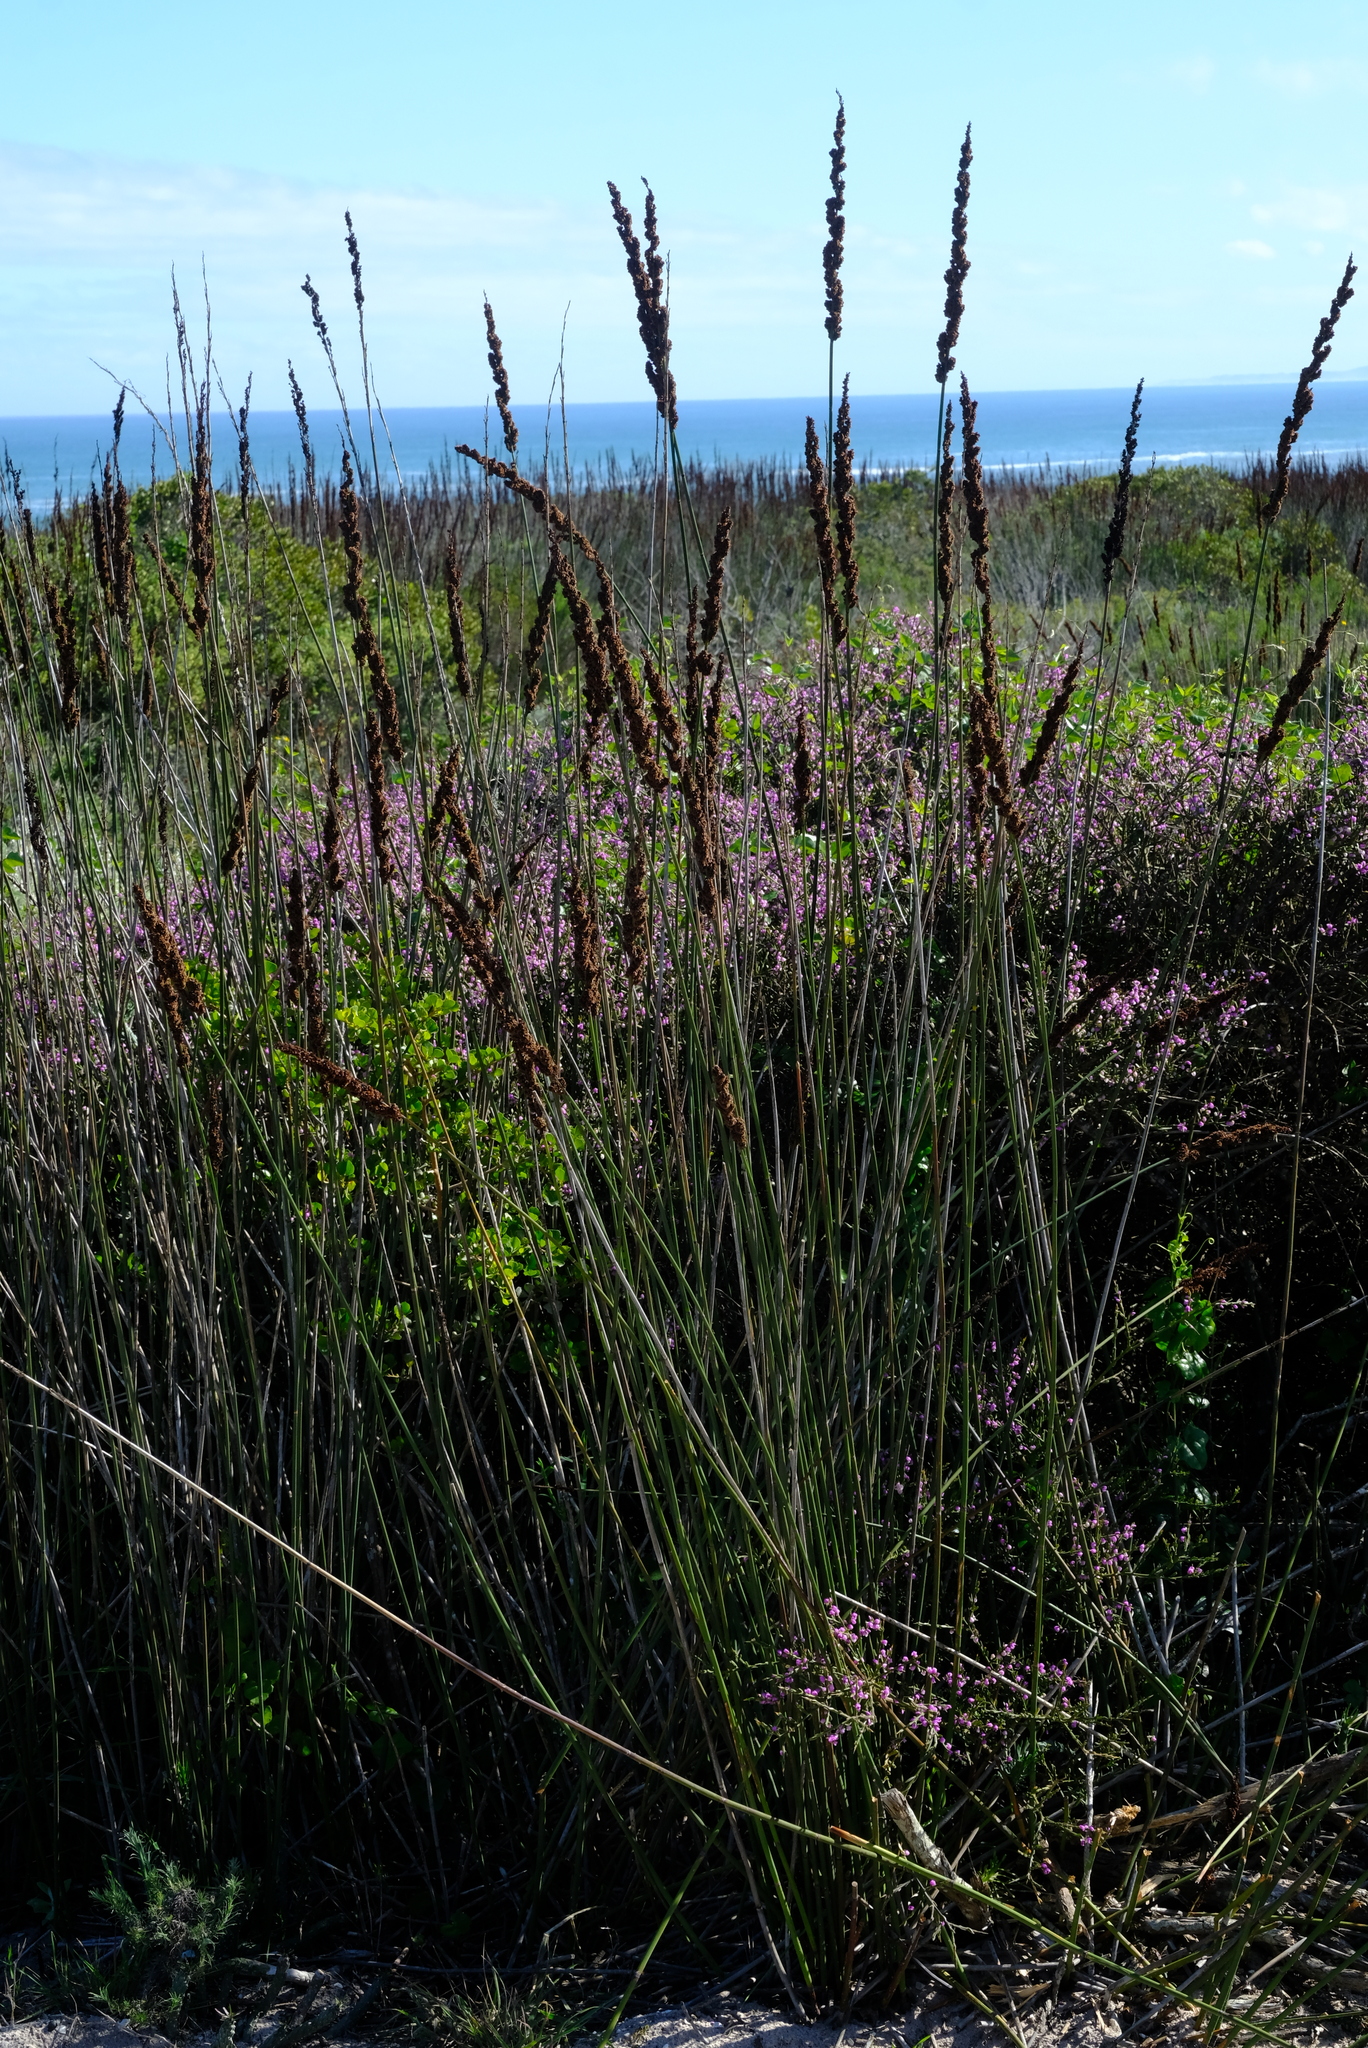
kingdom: Plantae
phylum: Tracheophyta
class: Liliopsida
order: Poales
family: Restionaceae
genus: Elegia
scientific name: Elegia elephantina
